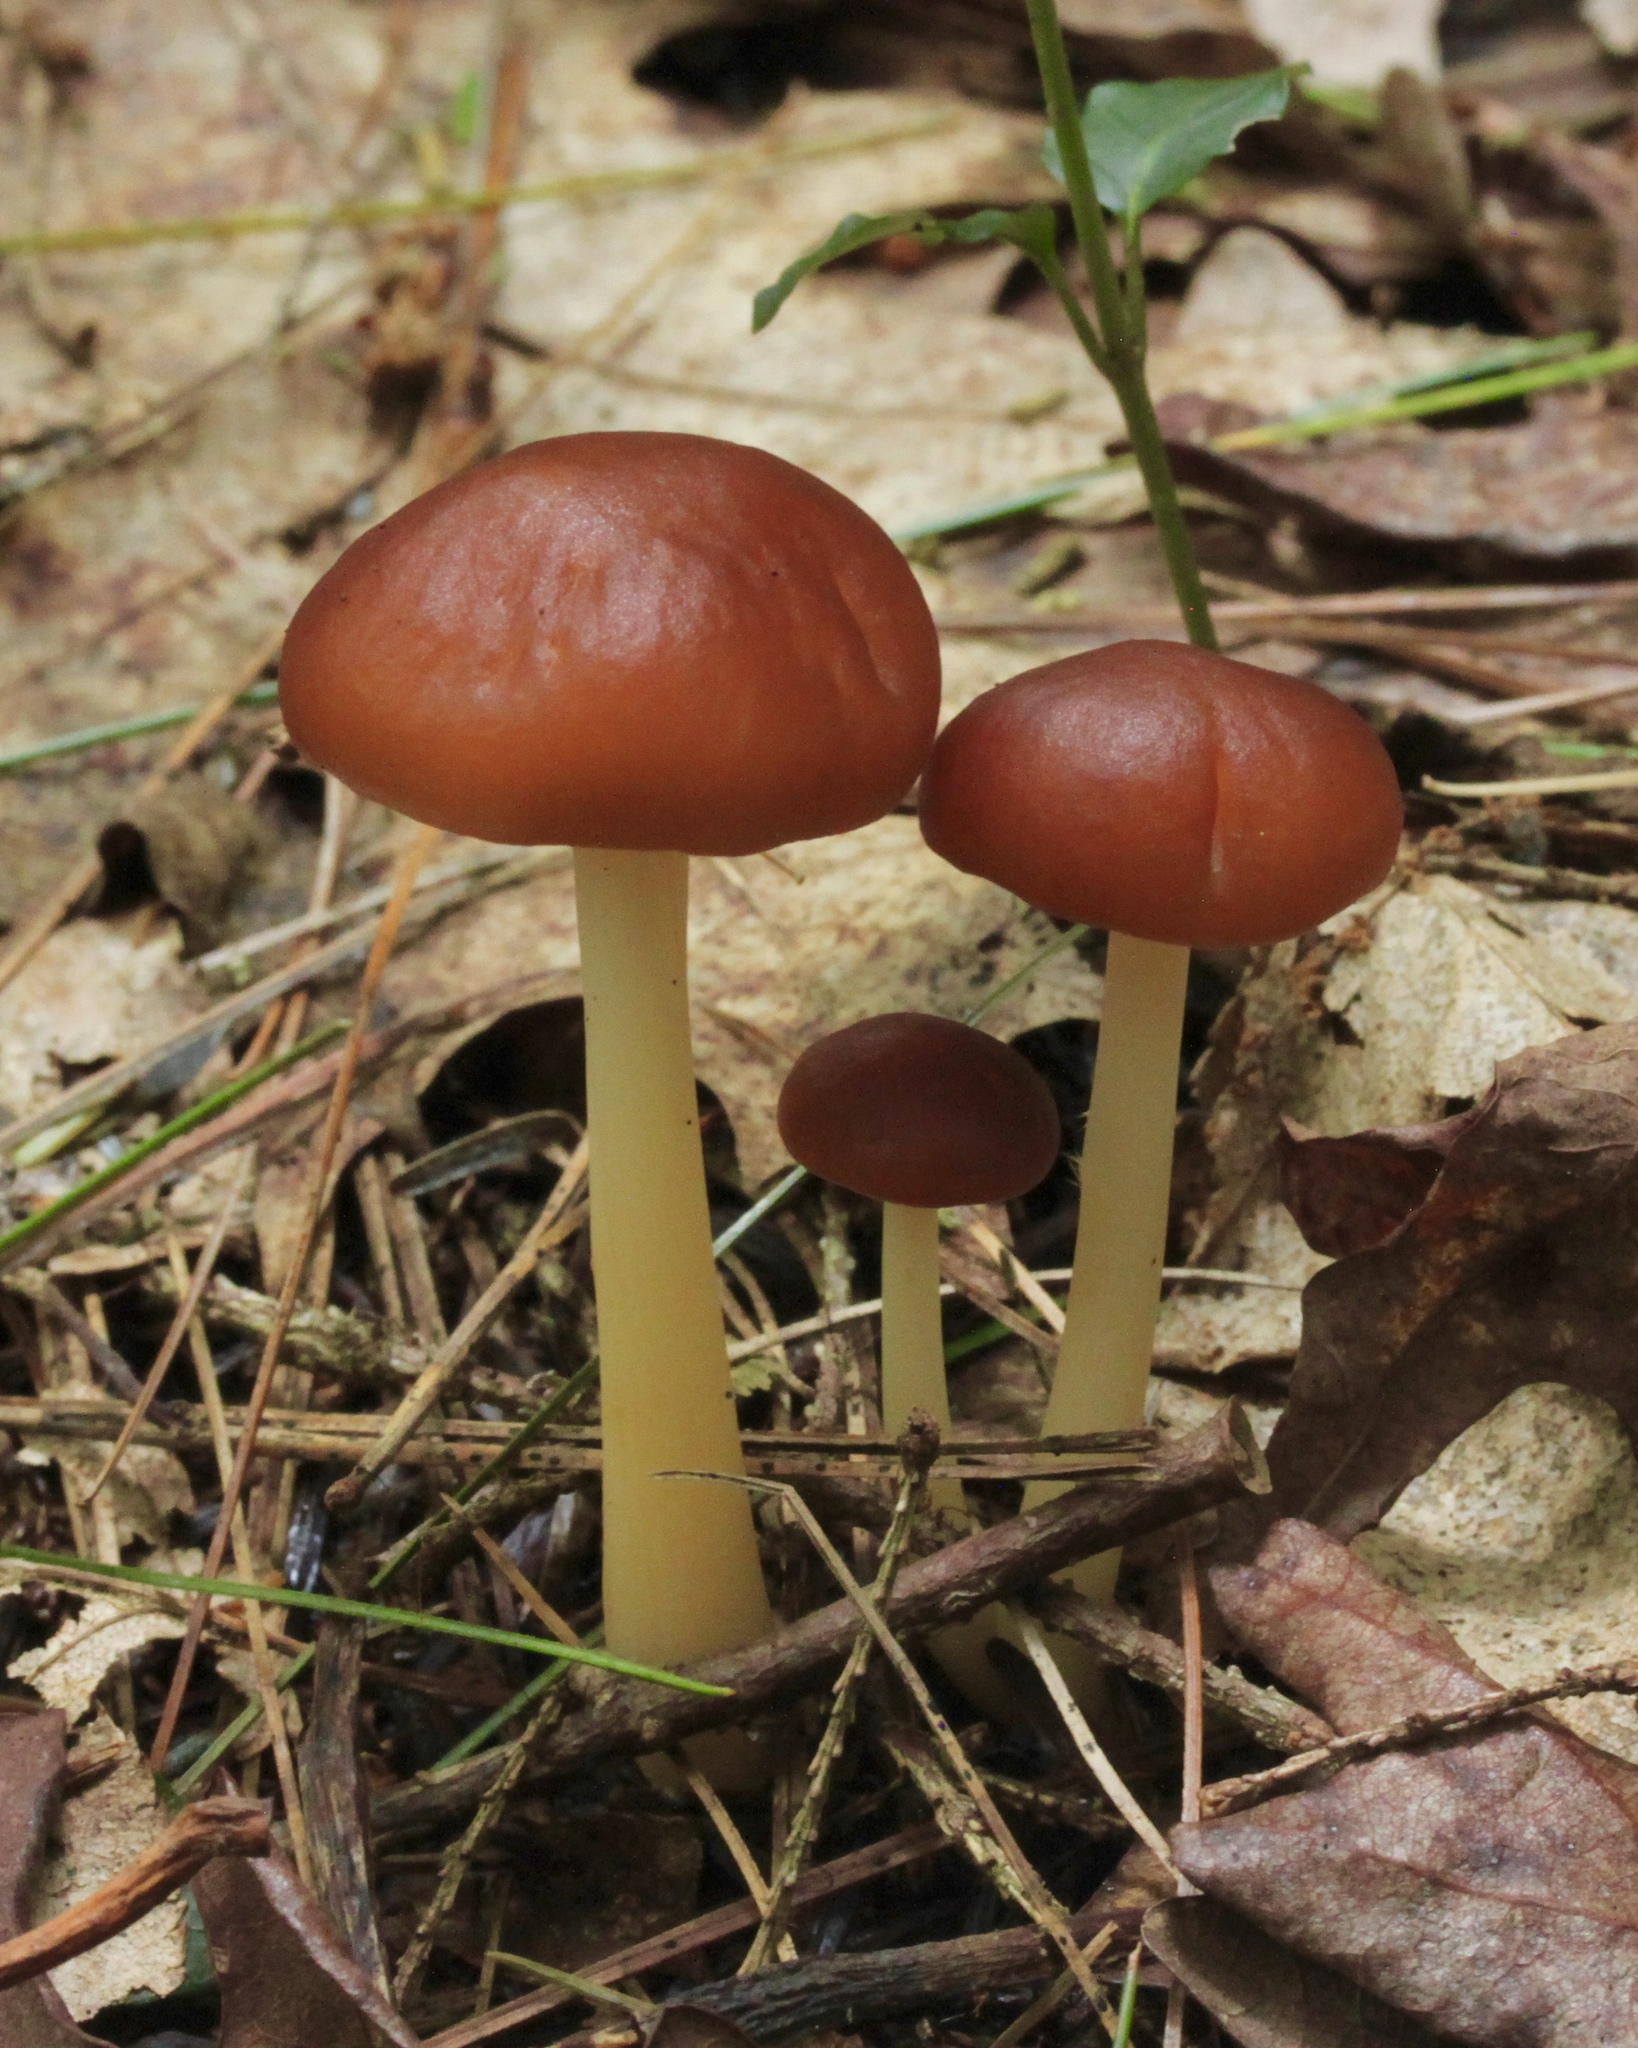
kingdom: Fungi
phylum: Basidiomycota
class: Agaricomycetes
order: Agaricales
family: Omphalotaceae
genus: Gymnopus
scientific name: Gymnopus dryophilus
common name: Penny top
